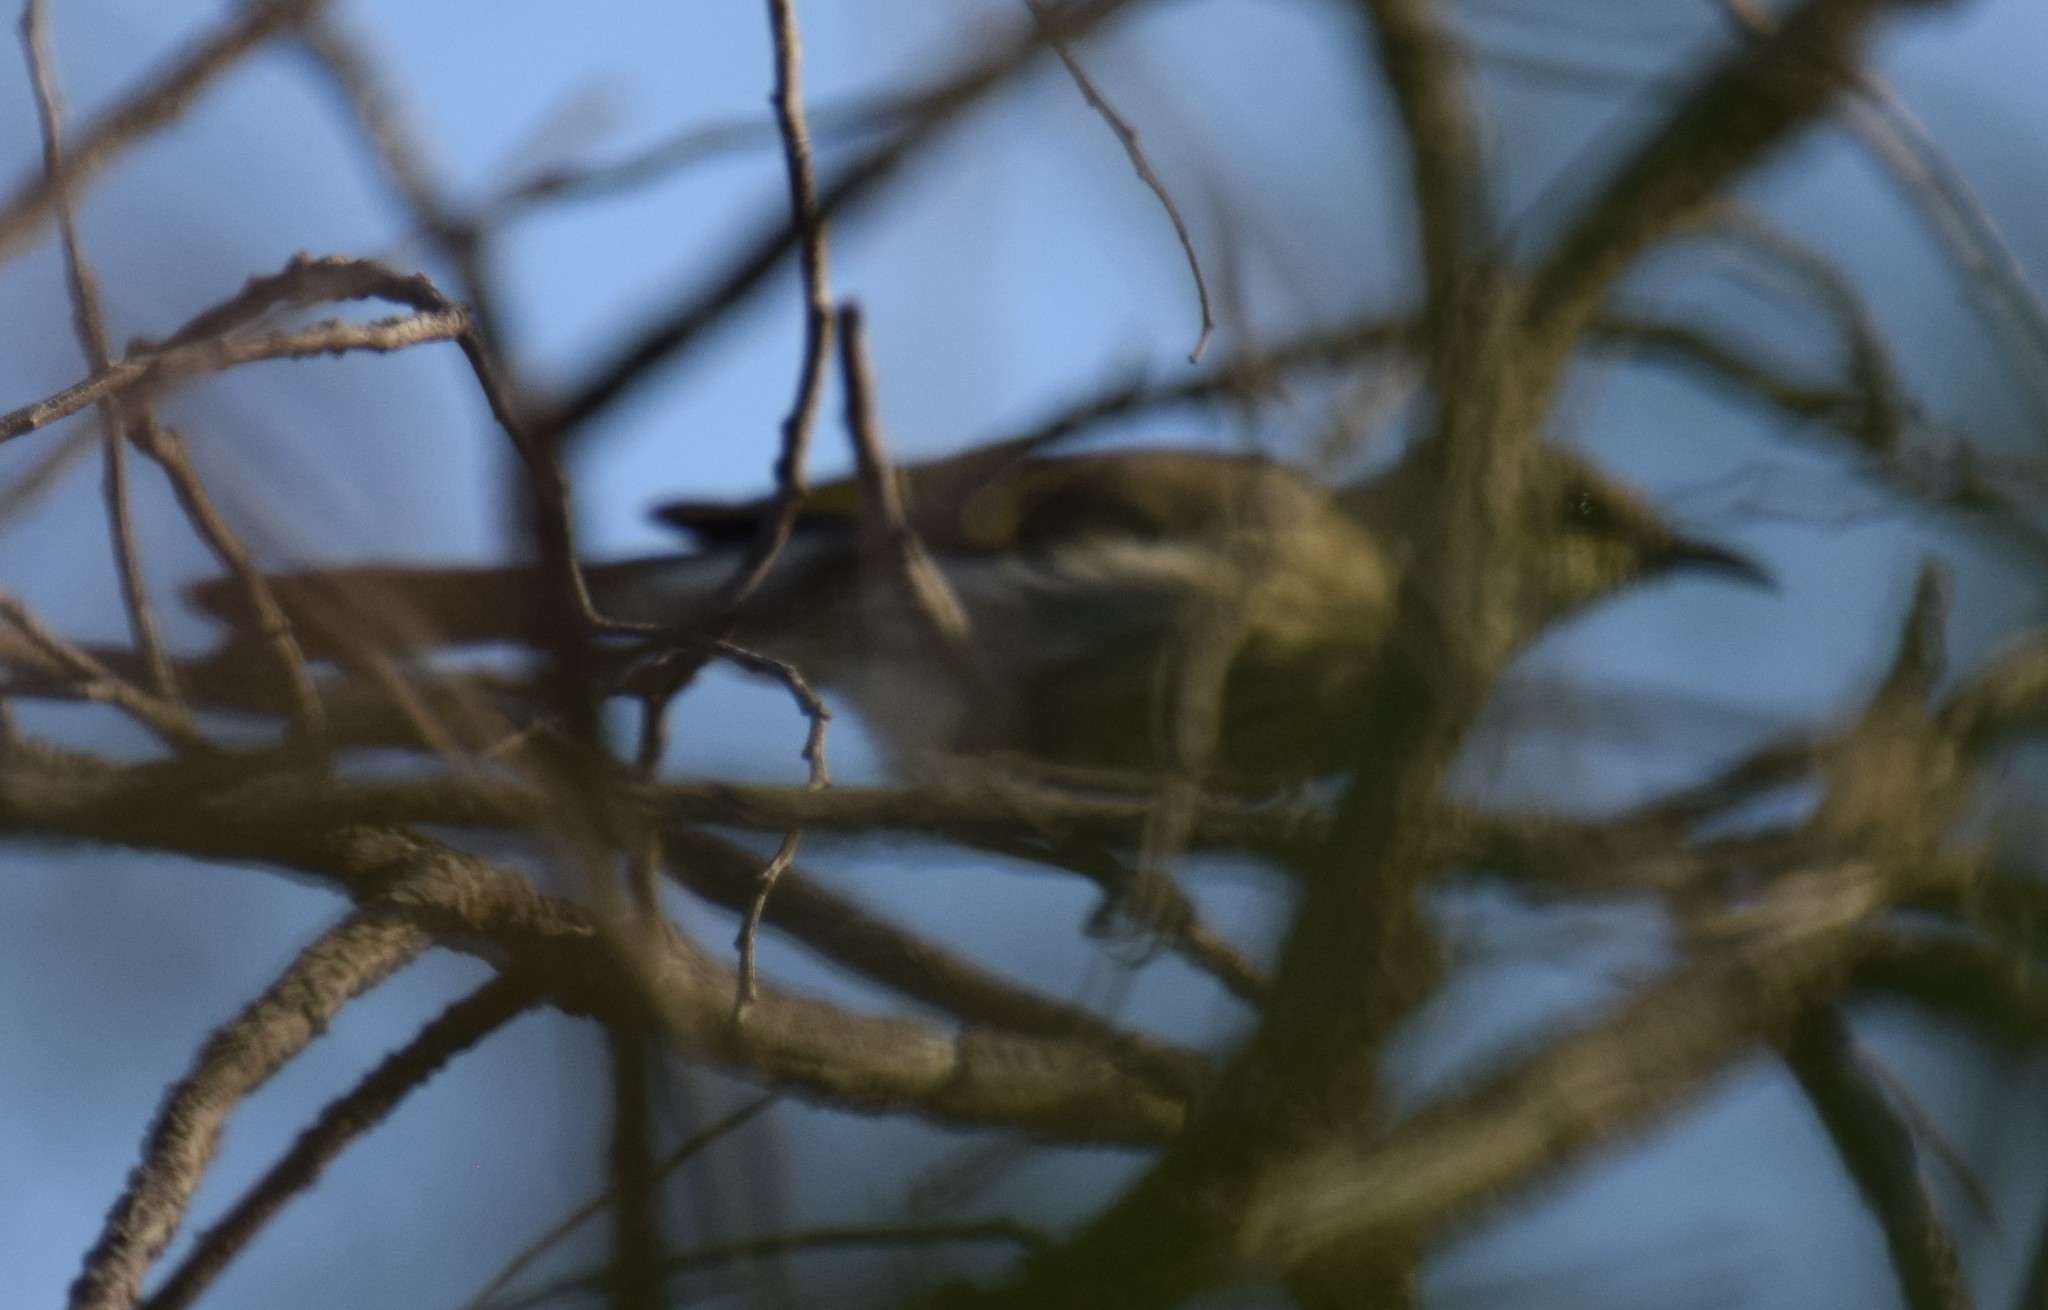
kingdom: Animalia
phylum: Chordata
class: Aves
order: Passeriformes
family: Meliphagidae
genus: Lichmera
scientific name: Lichmera indistincta
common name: Brown honeyeater
